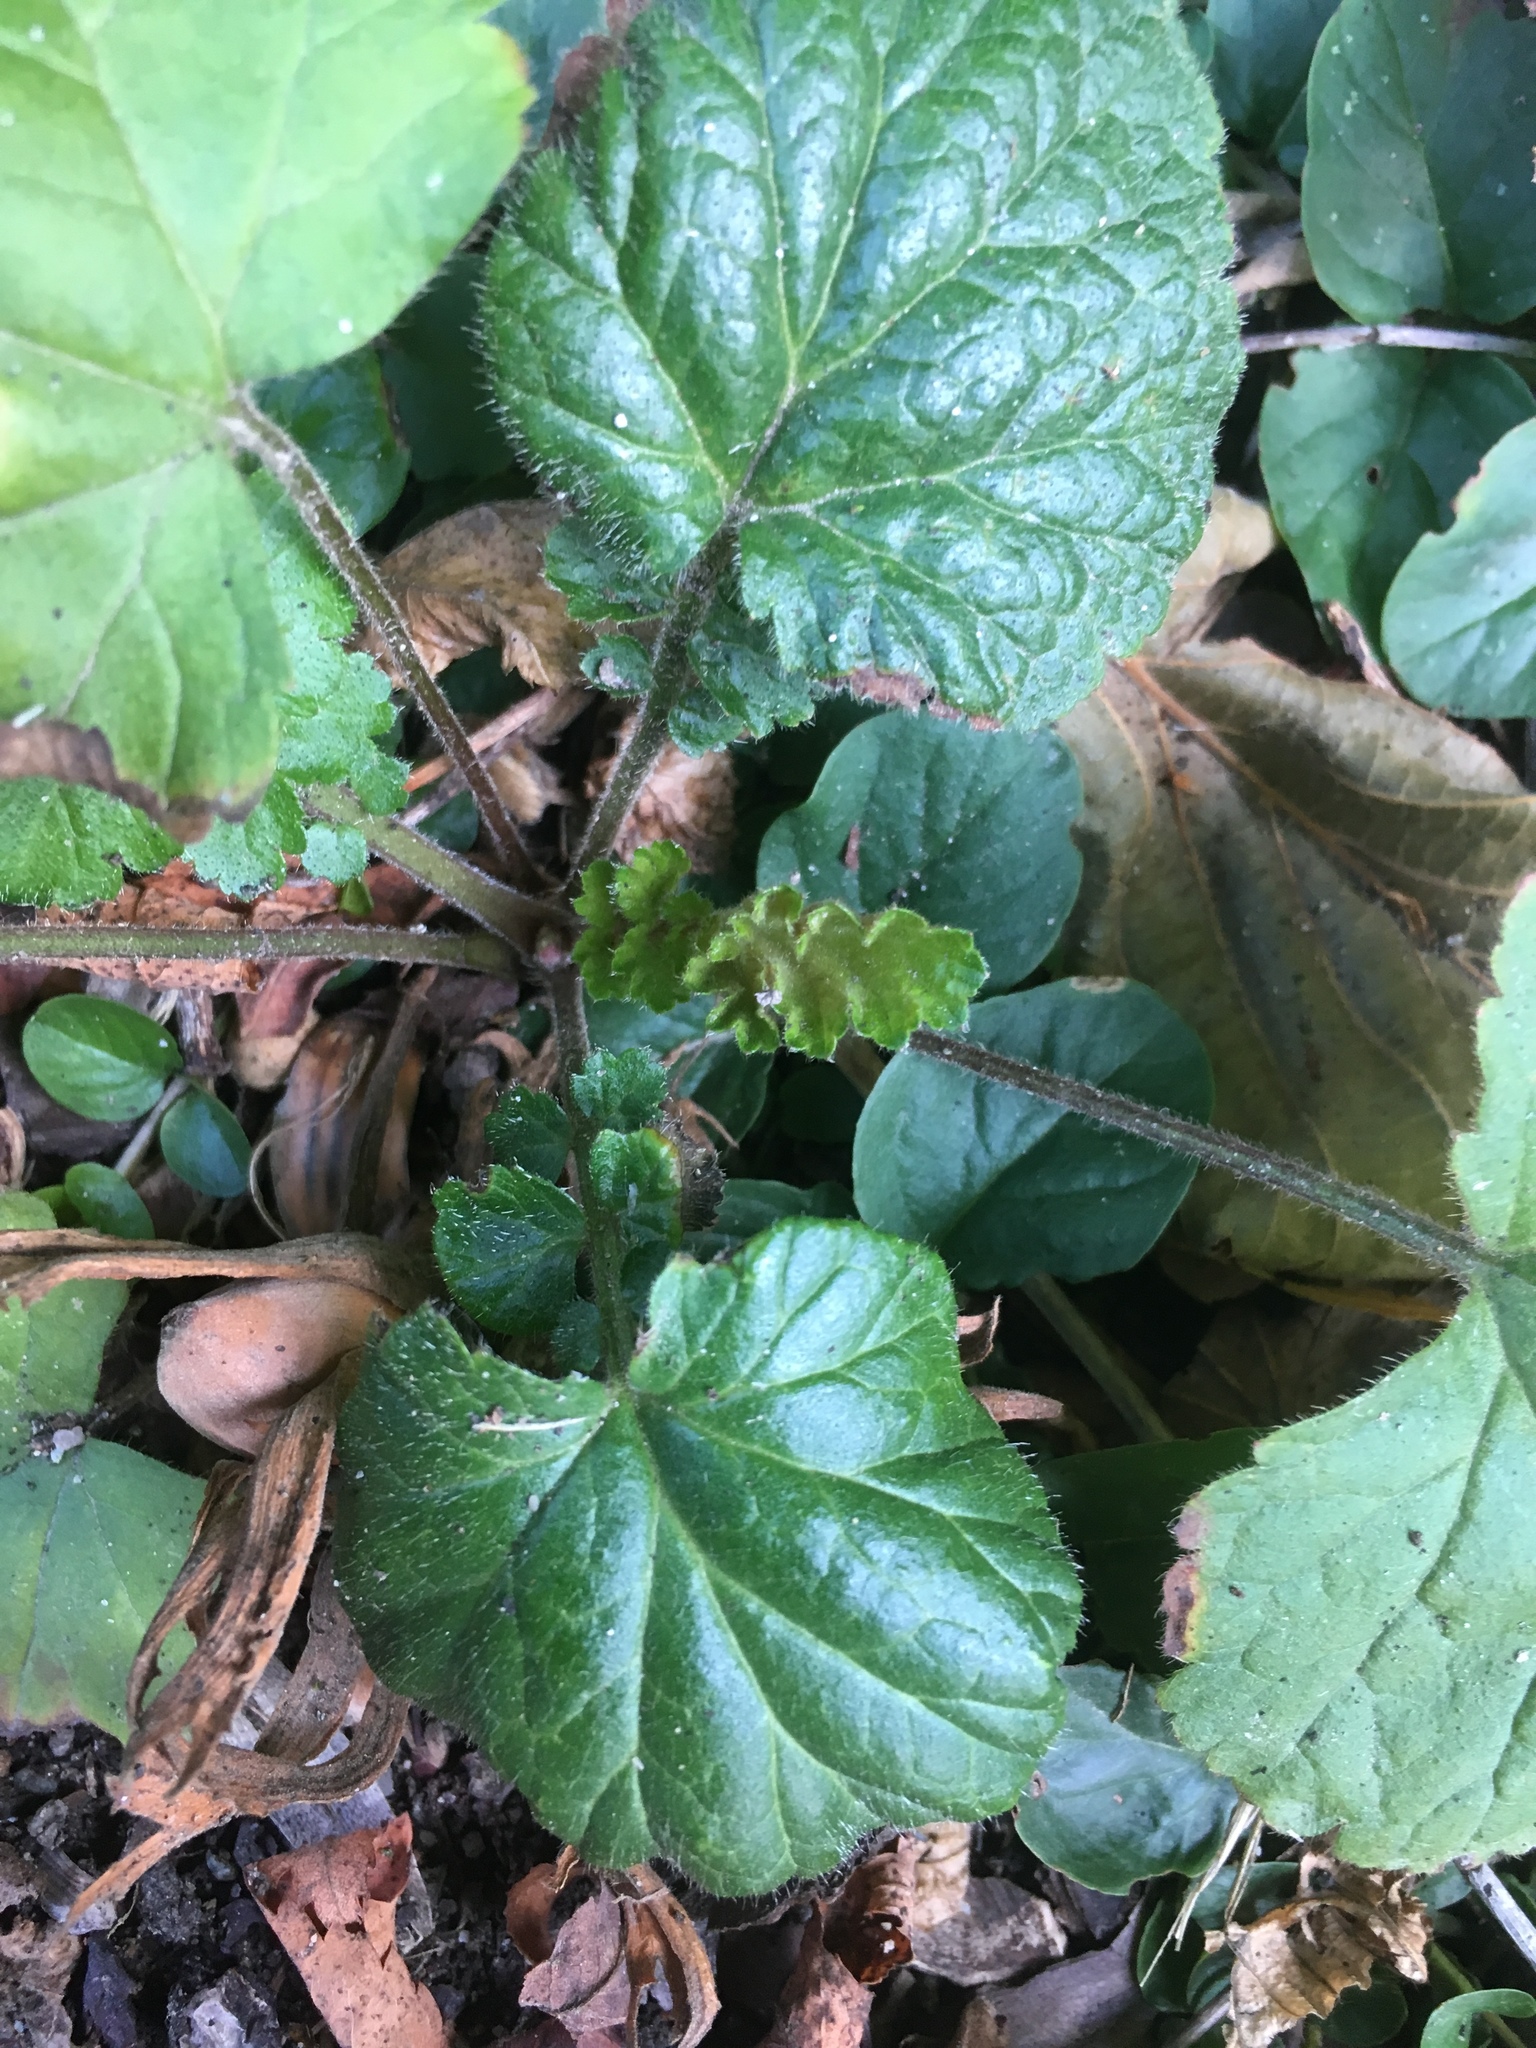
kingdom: Plantae
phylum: Tracheophyta
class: Magnoliopsida
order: Rosales
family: Rosaceae
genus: Geum
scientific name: Geum urbanum
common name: Wood avens
